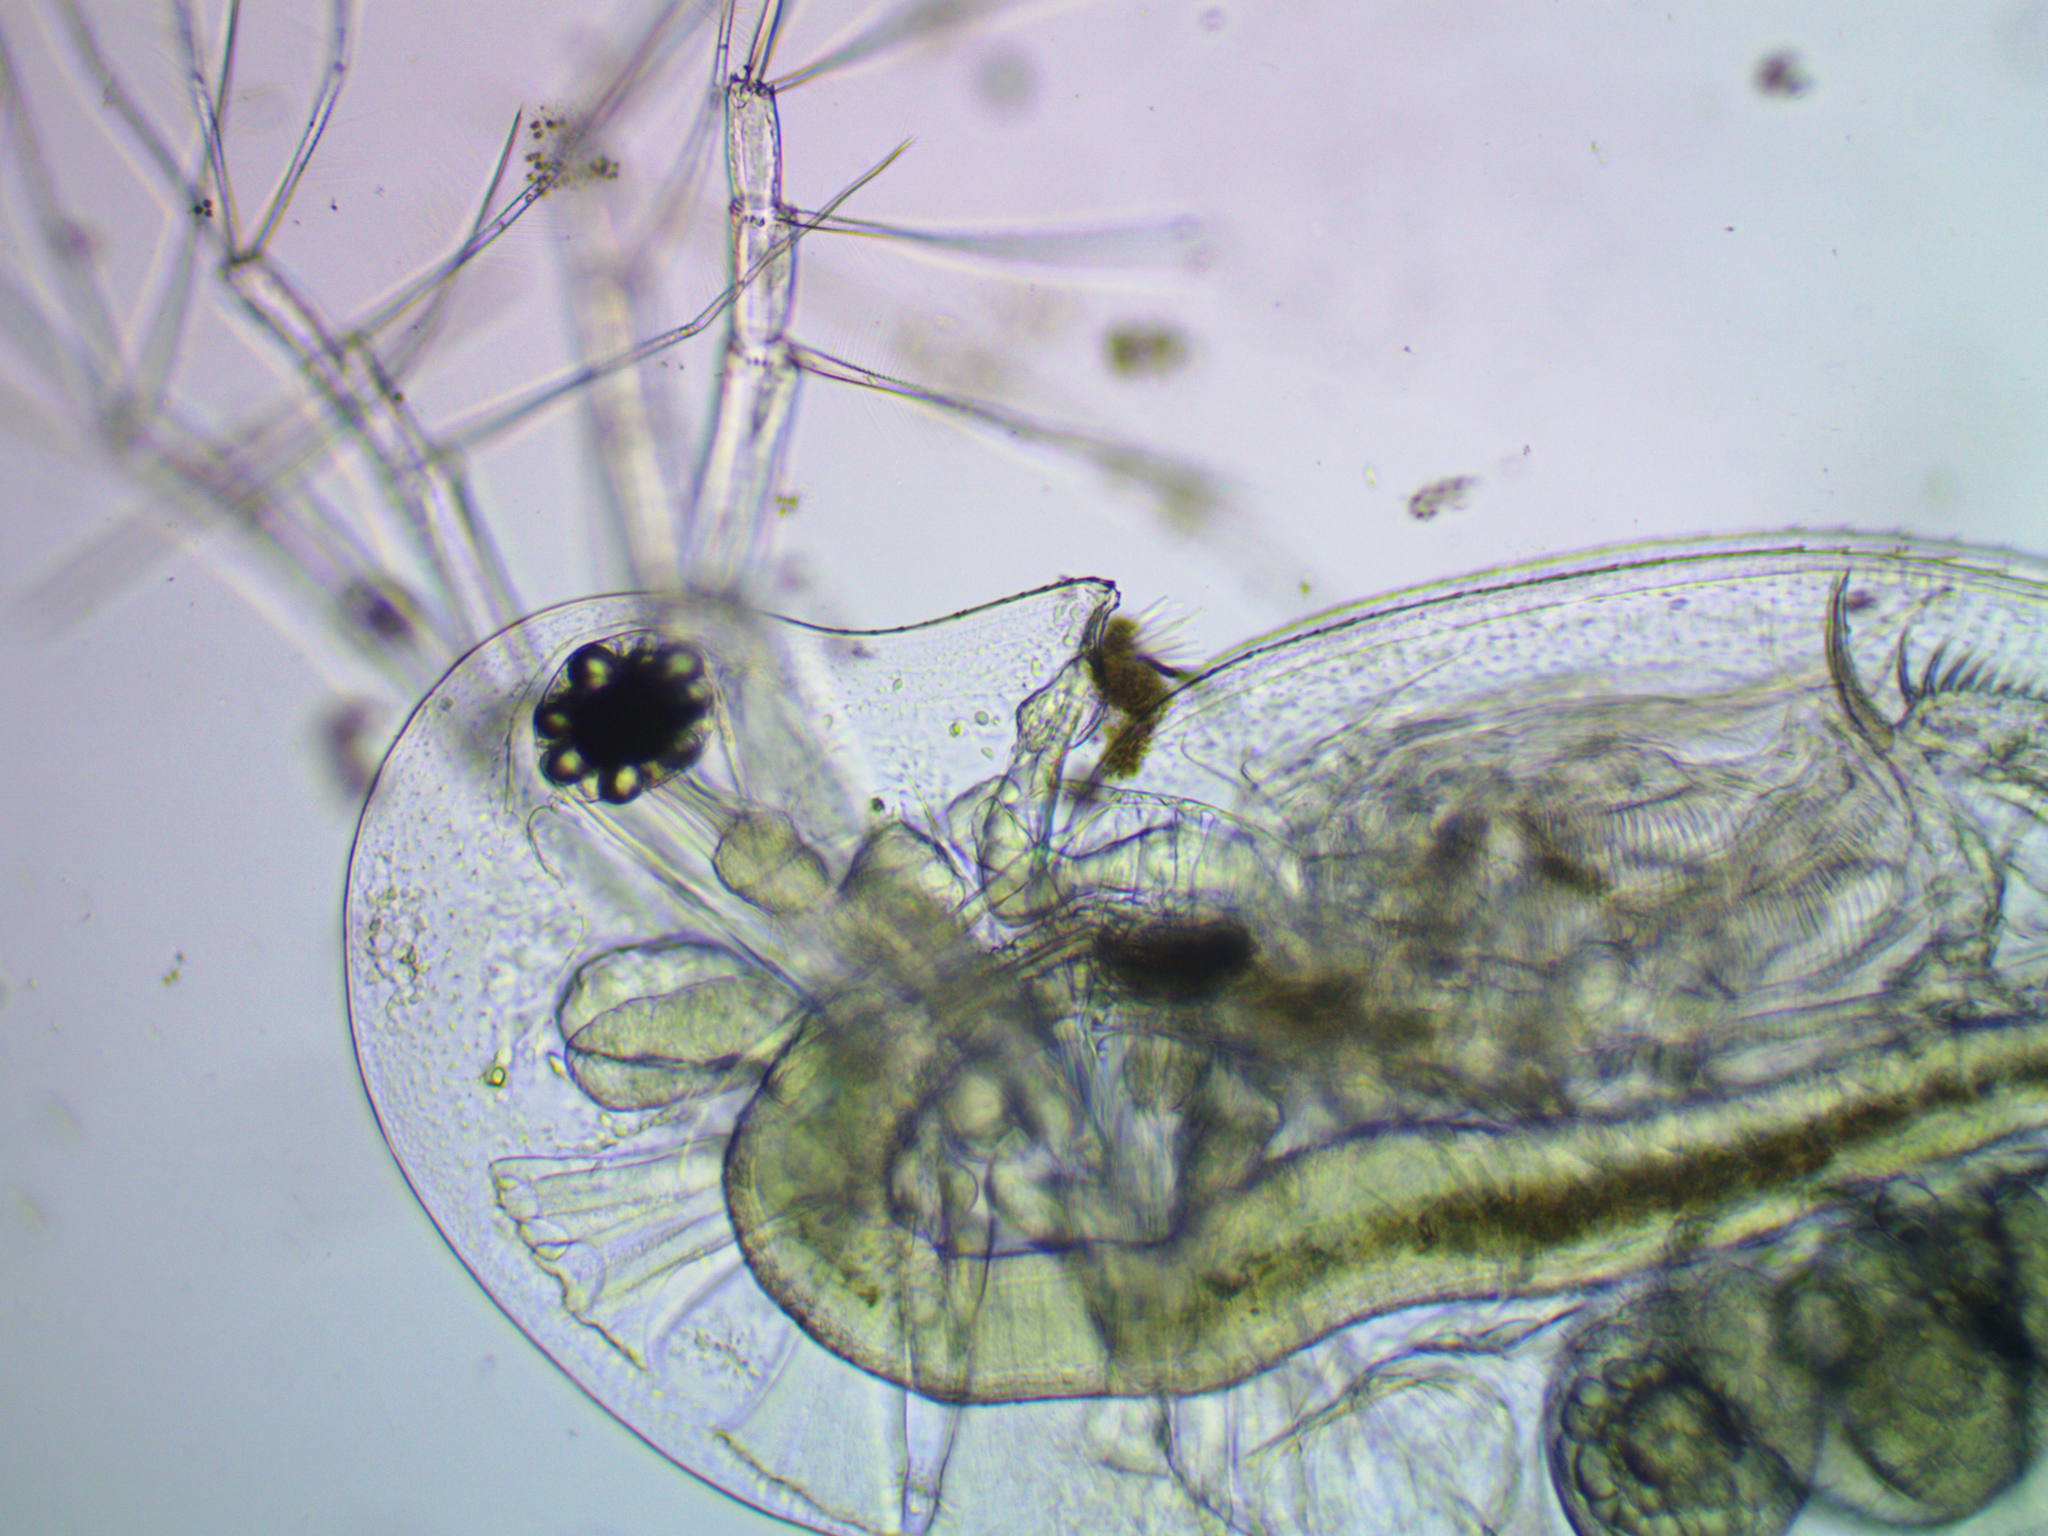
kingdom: Animalia
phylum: Arthropoda
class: Branchiopoda
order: Diplostraca
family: Daphniidae
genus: Daphnia
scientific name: Daphnia galeata
